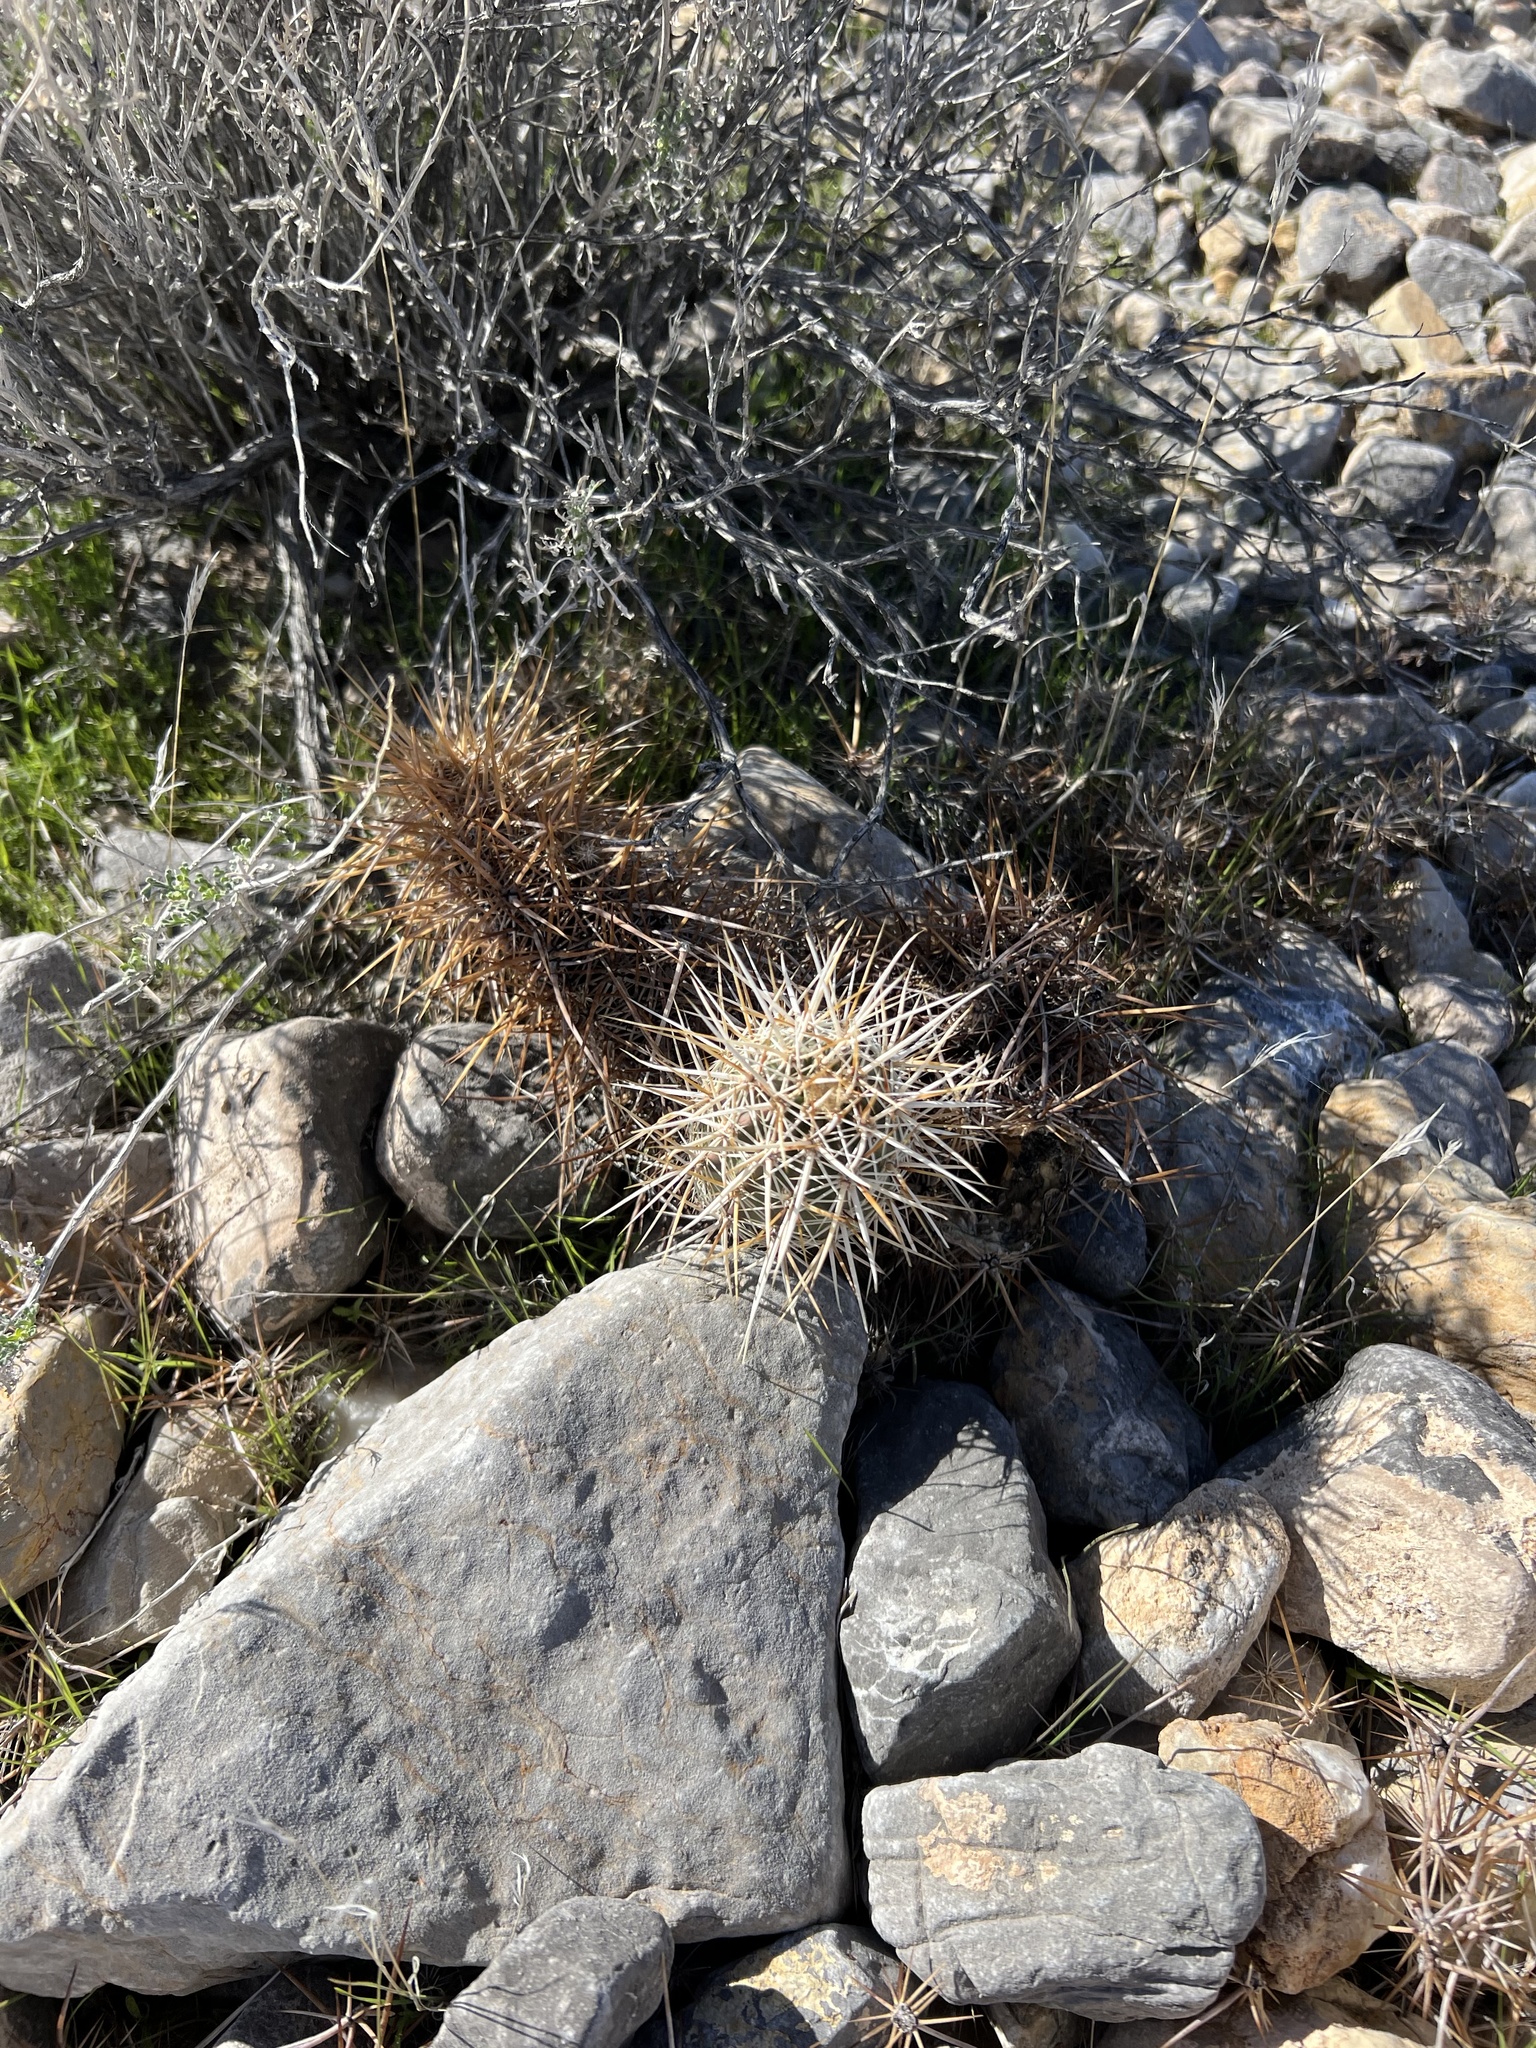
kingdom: Plantae
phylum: Tracheophyta
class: Magnoliopsida
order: Caryophyllales
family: Cactaceae
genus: Echinocereus
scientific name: Echinocereus engelmannii
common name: Engelmann's hedgehog cactus
